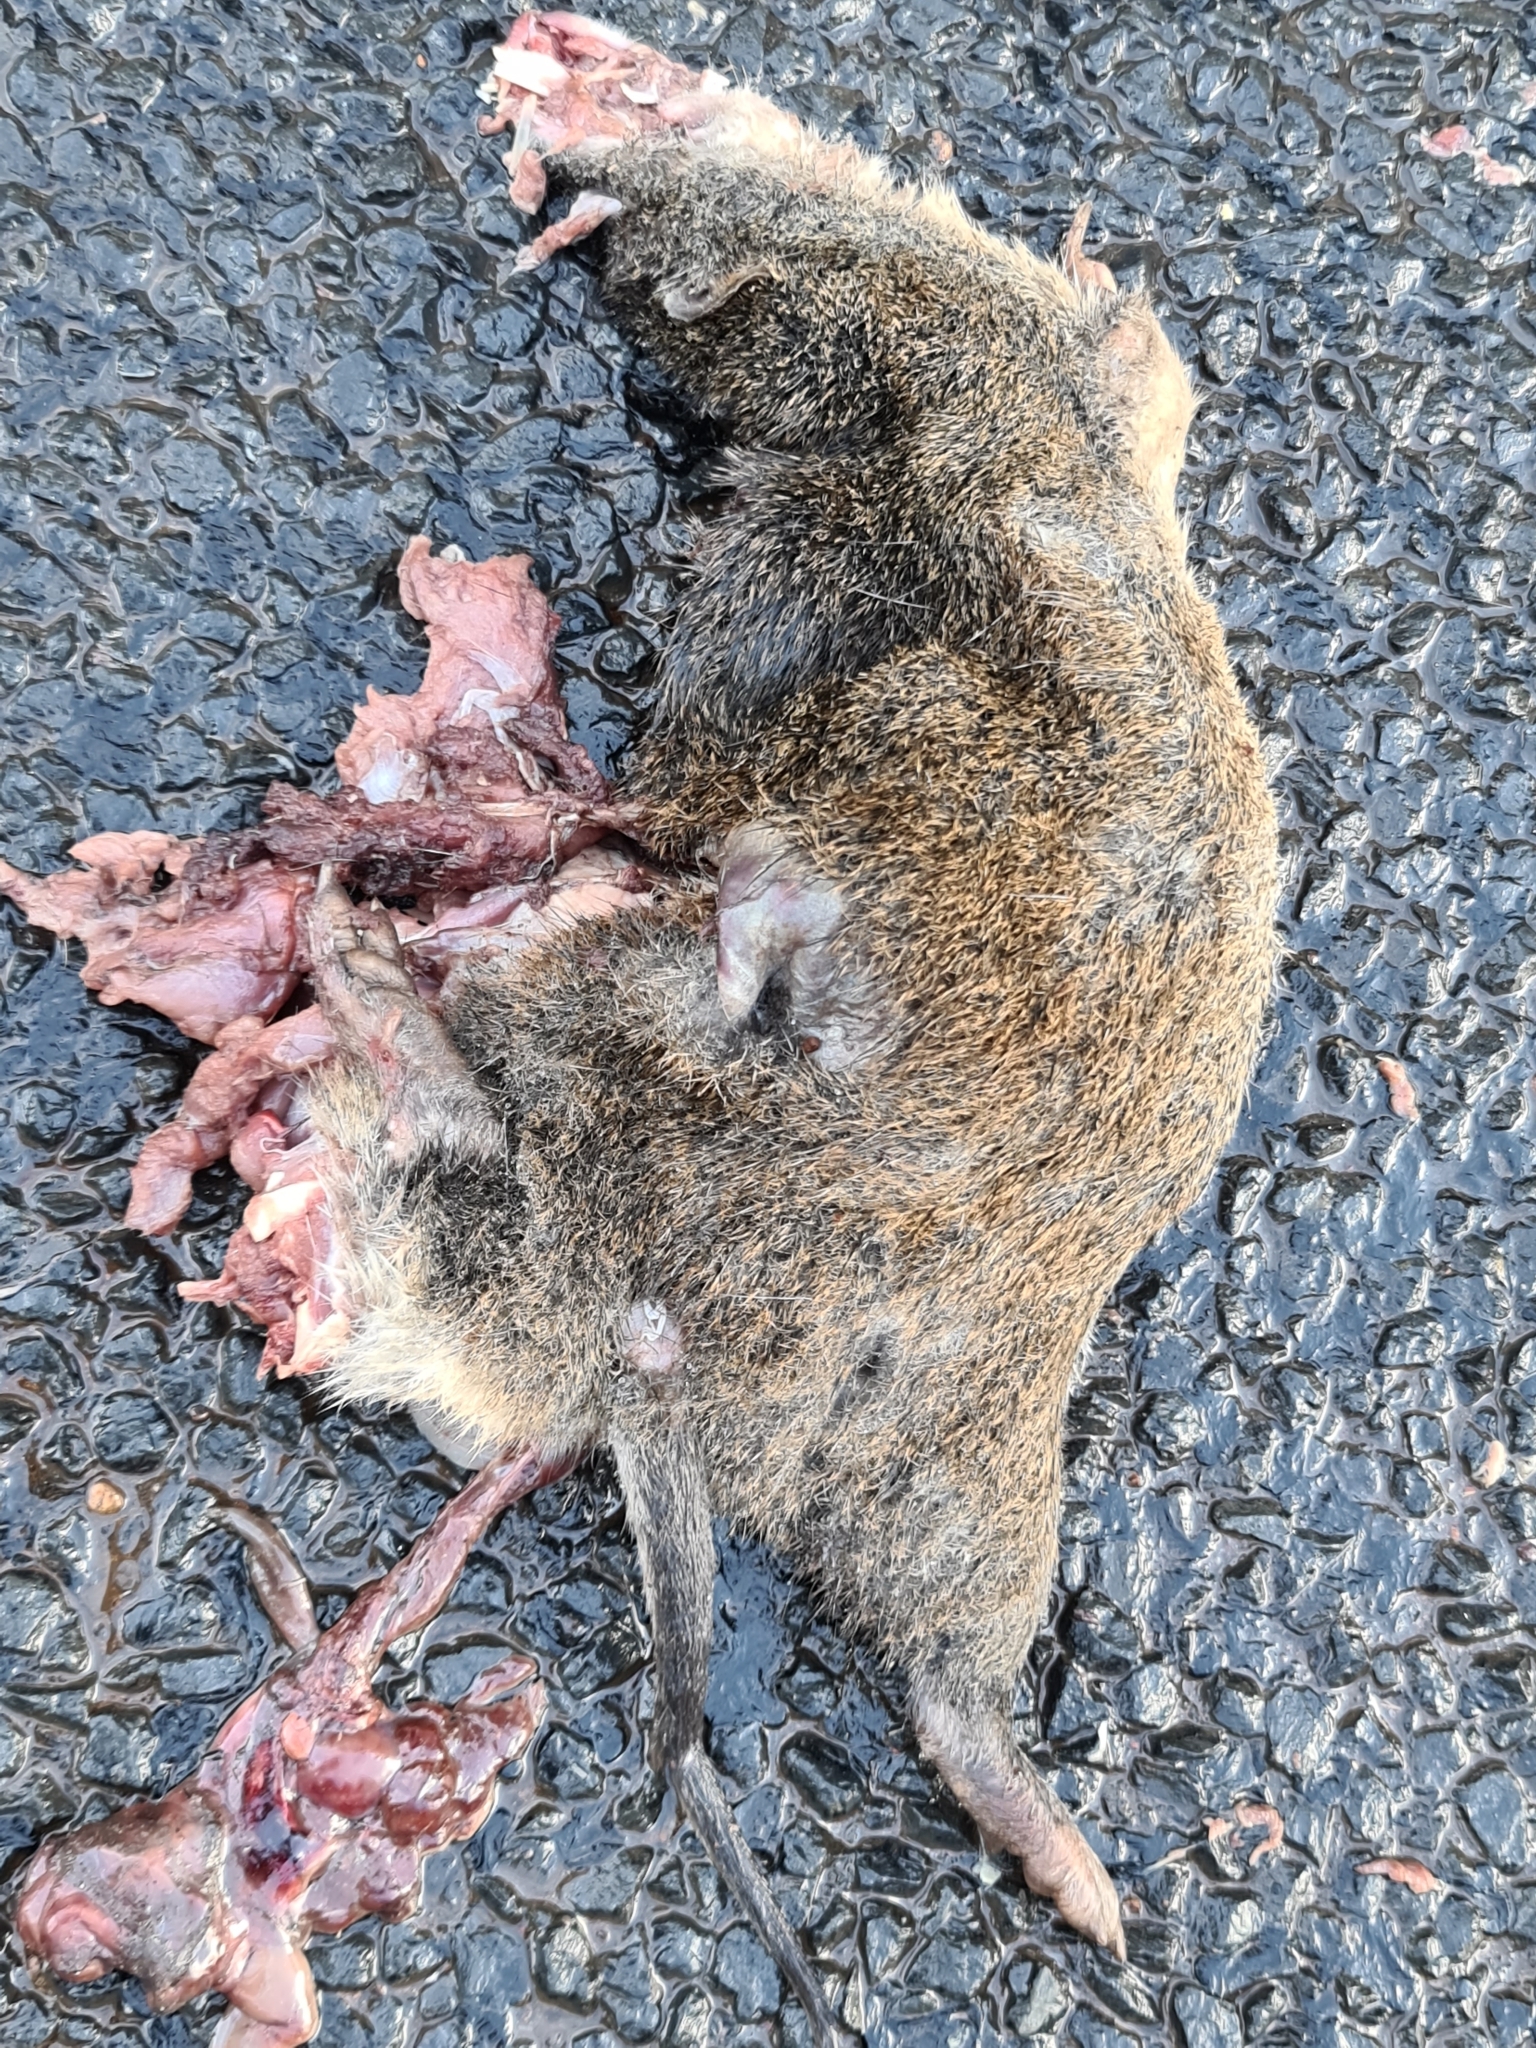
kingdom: Animalia
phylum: Chordata
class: Mammalia
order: Peramelemorphia
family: Peramelidae
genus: Isoodon
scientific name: Isoodon fusciventer
